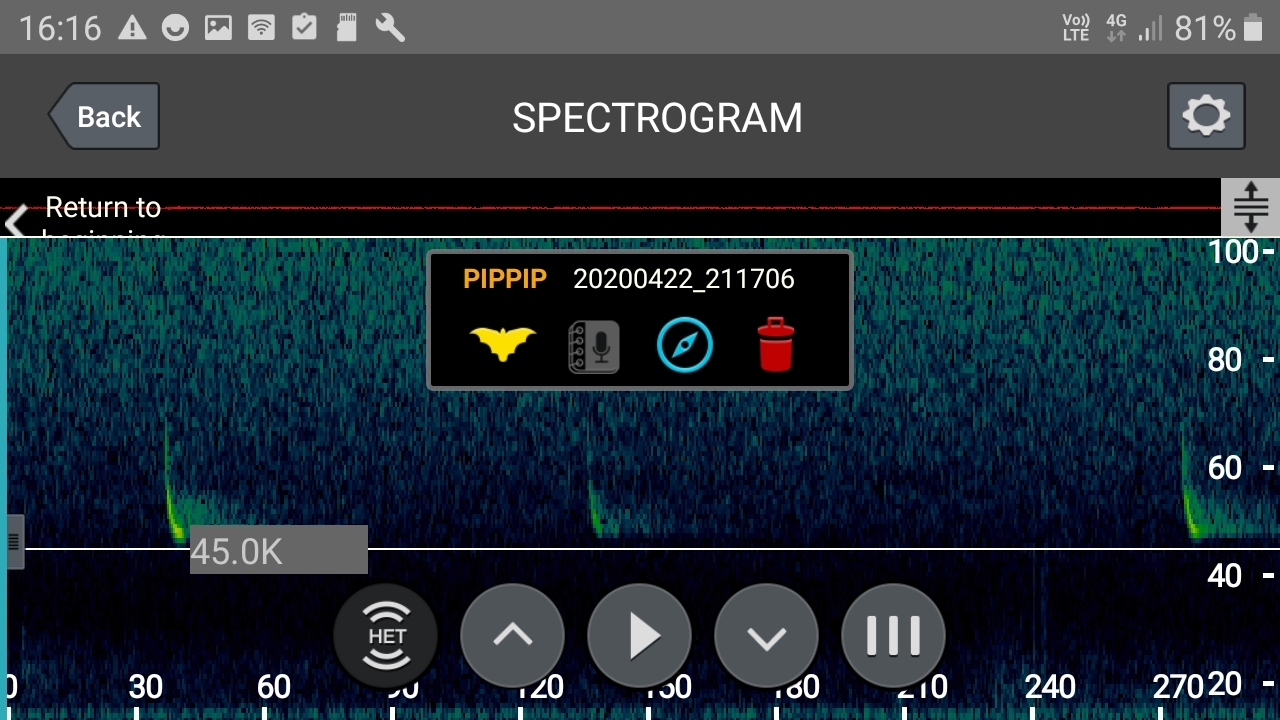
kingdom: Animalia
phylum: Chordata
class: Mammalia
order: Chiroptera
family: Vespertilionidae
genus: Pipistrellus
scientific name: Pipistrellus pipistrellus
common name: Common pipistrelle
